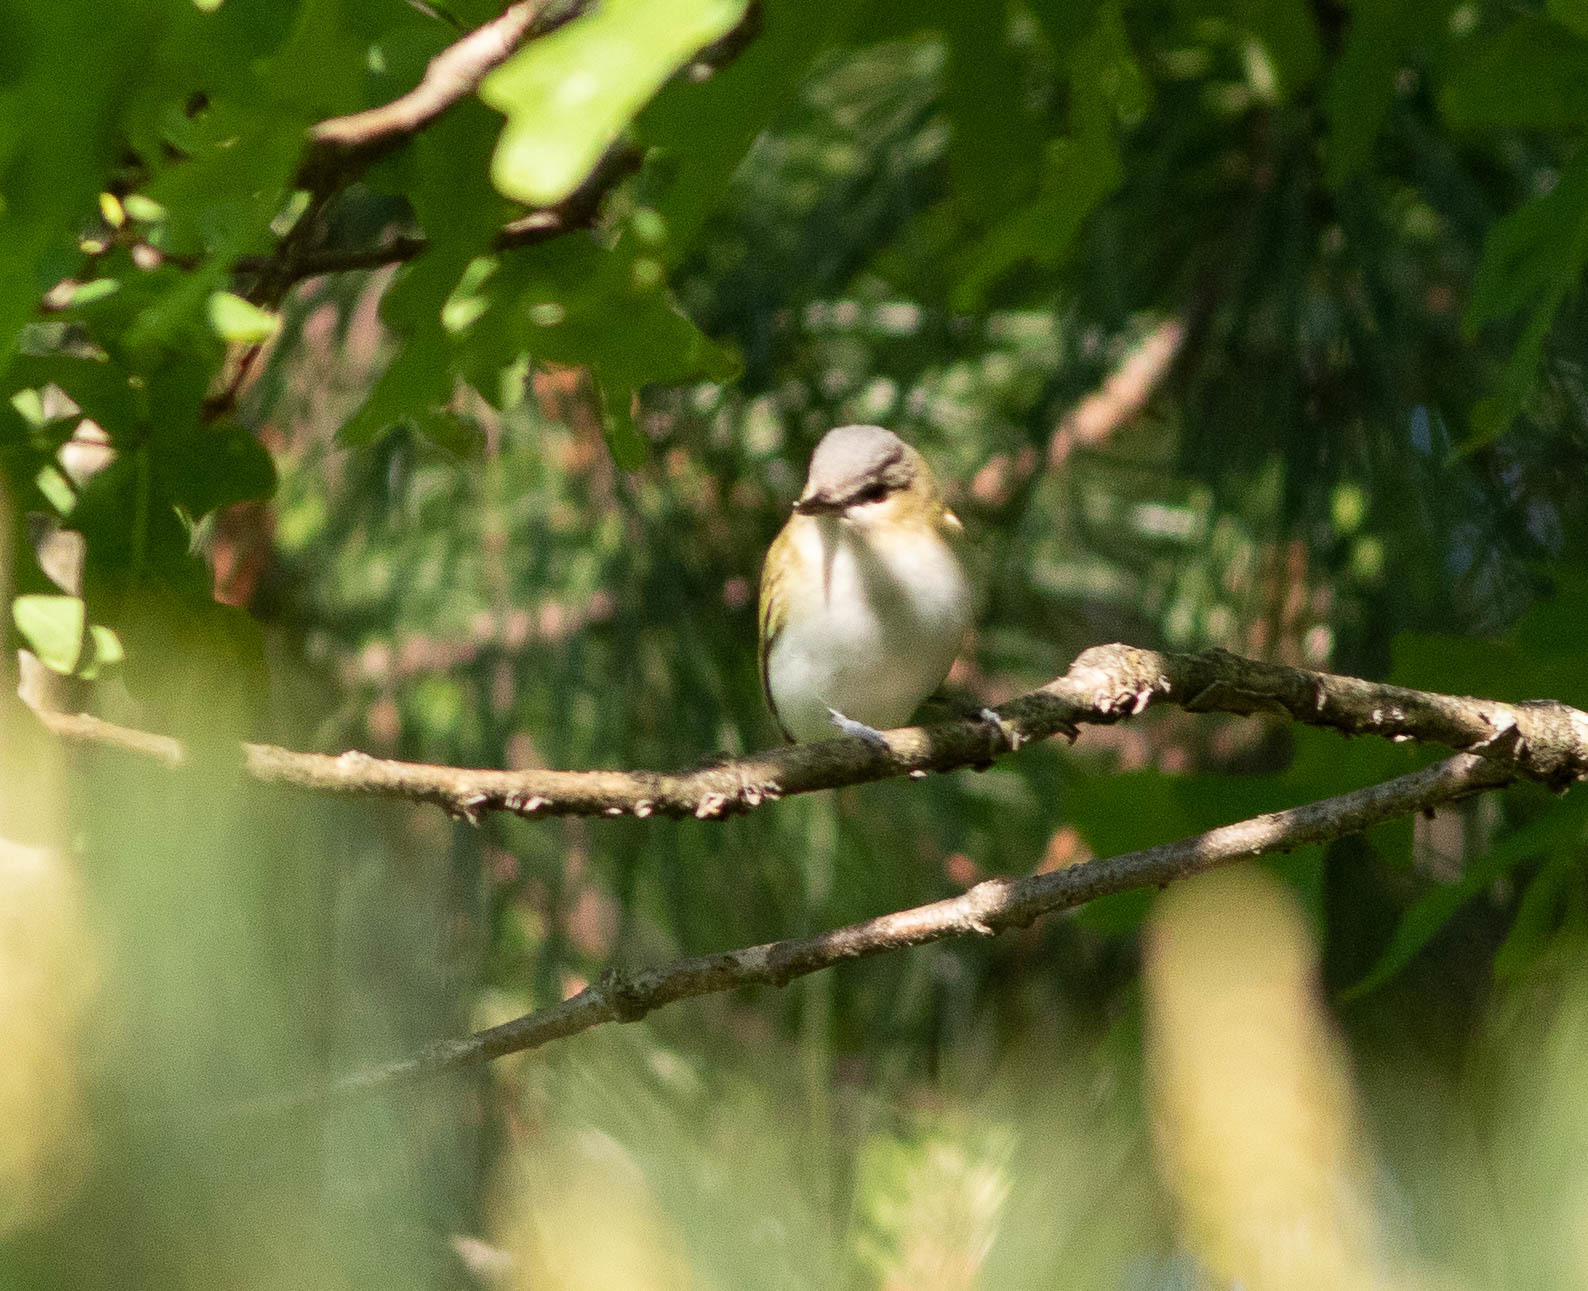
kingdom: Animalia
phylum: Chordata
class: Aves
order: Passeriformes
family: Vireonidae
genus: Vireo
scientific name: Vireo olivaceus
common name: Red-eyed vireo
